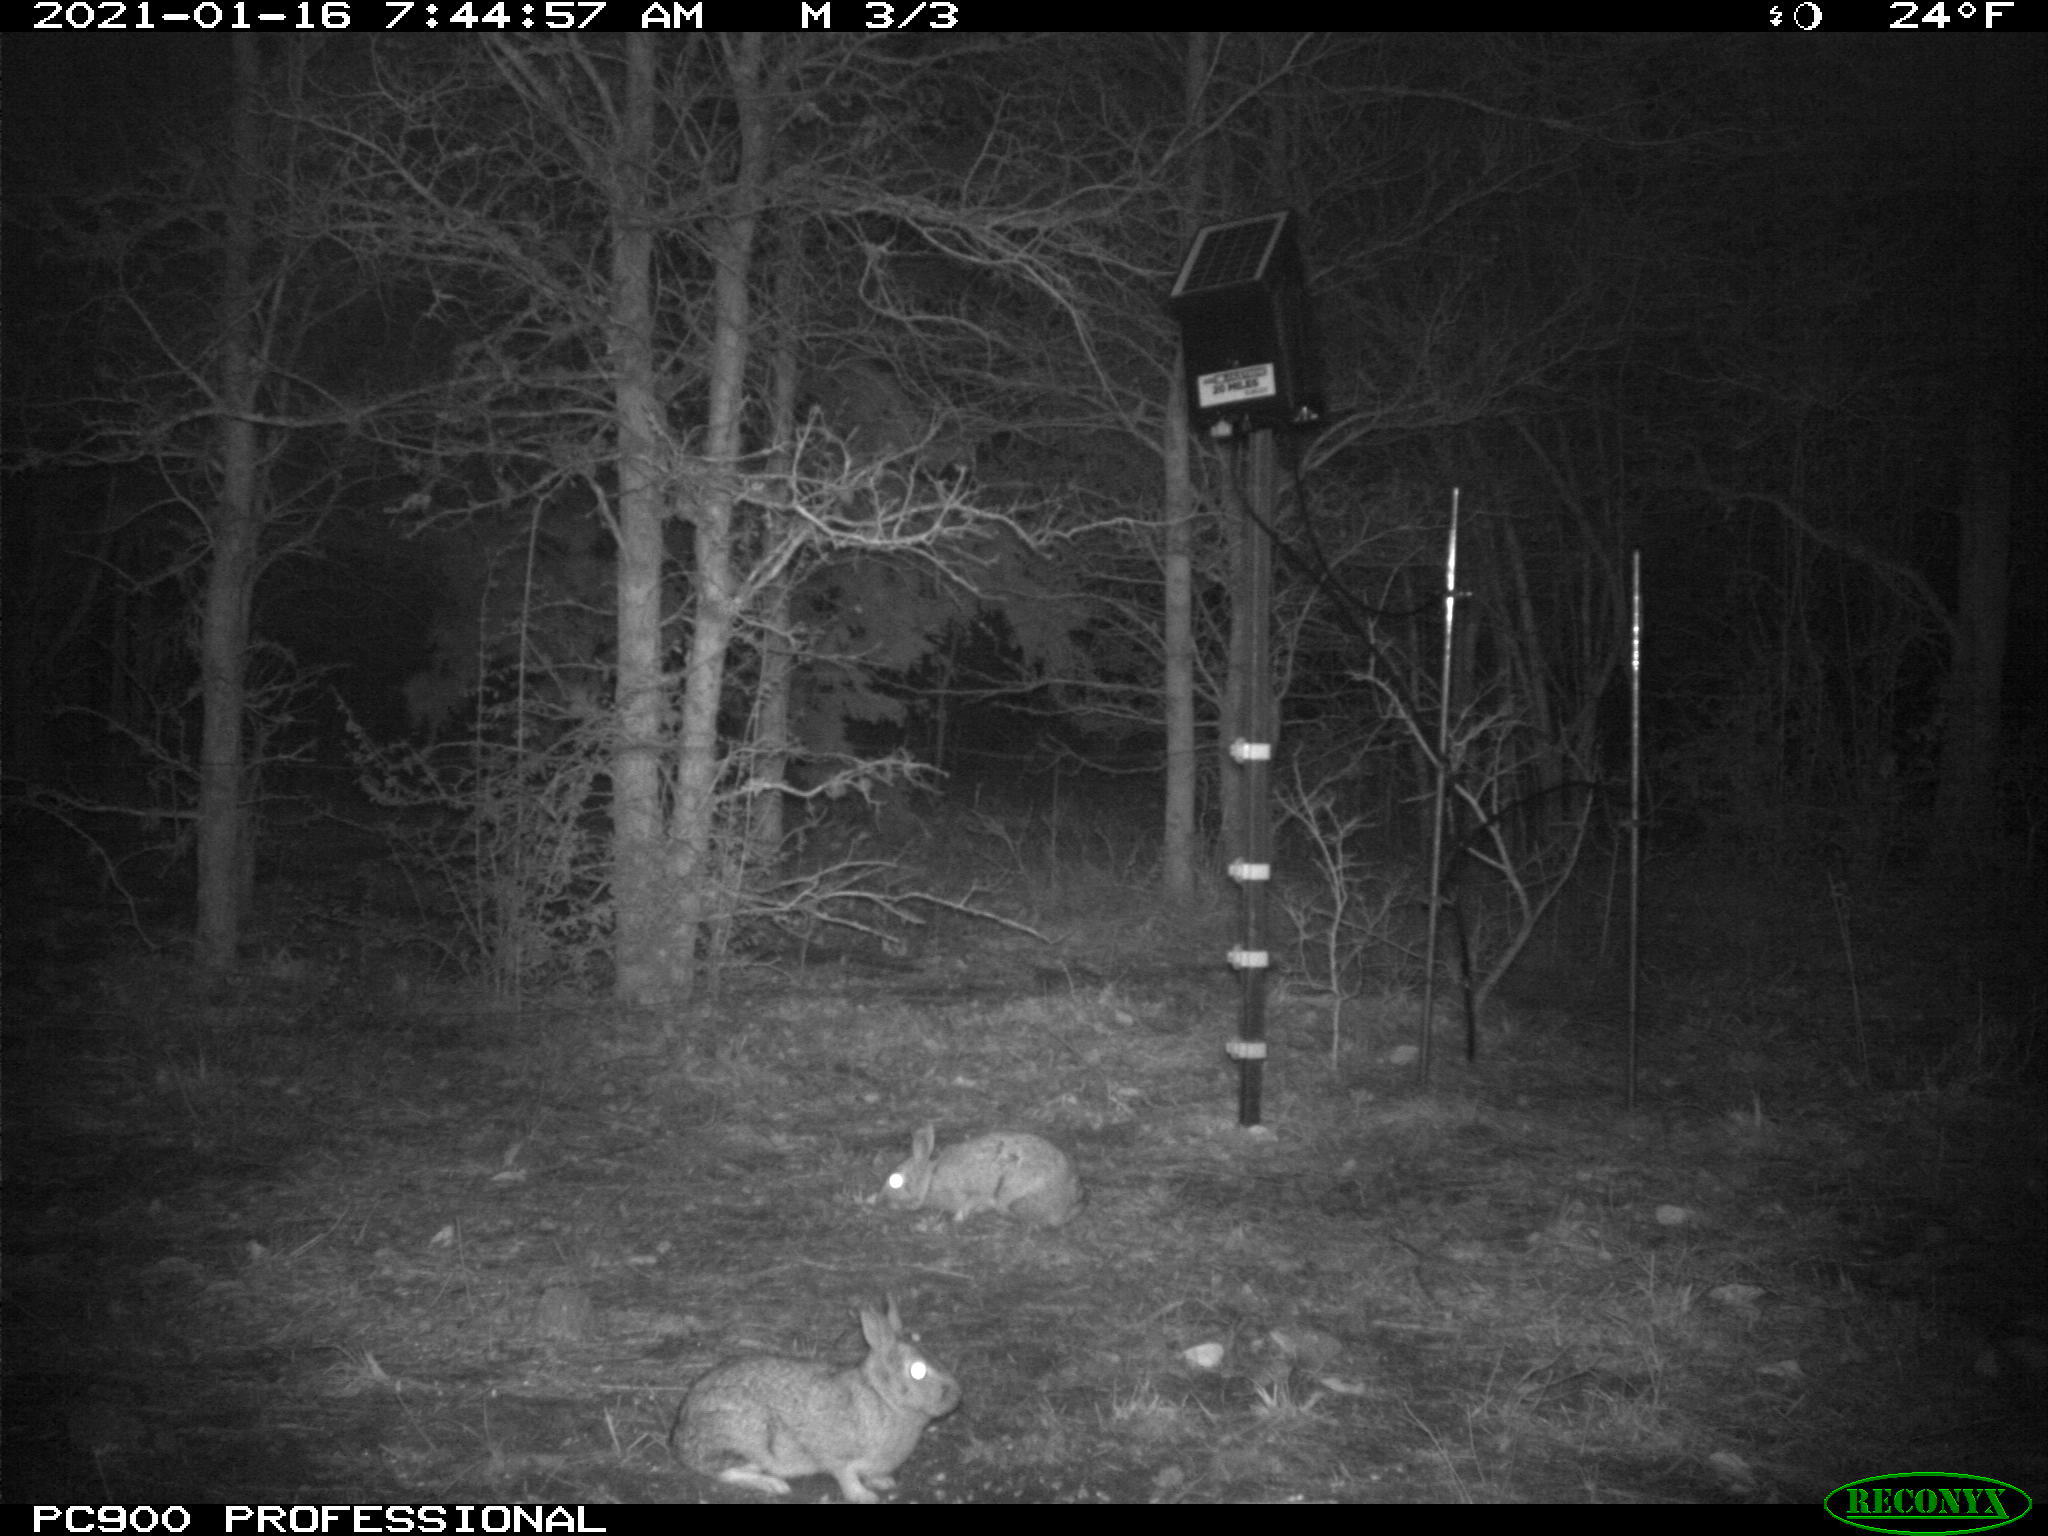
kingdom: Animalia
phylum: Chordata
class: Mammalia
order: Lagomorpha
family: Leporidae
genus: Sylvilagus
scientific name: Sylvilagus floridanus
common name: Eastern cottontail
